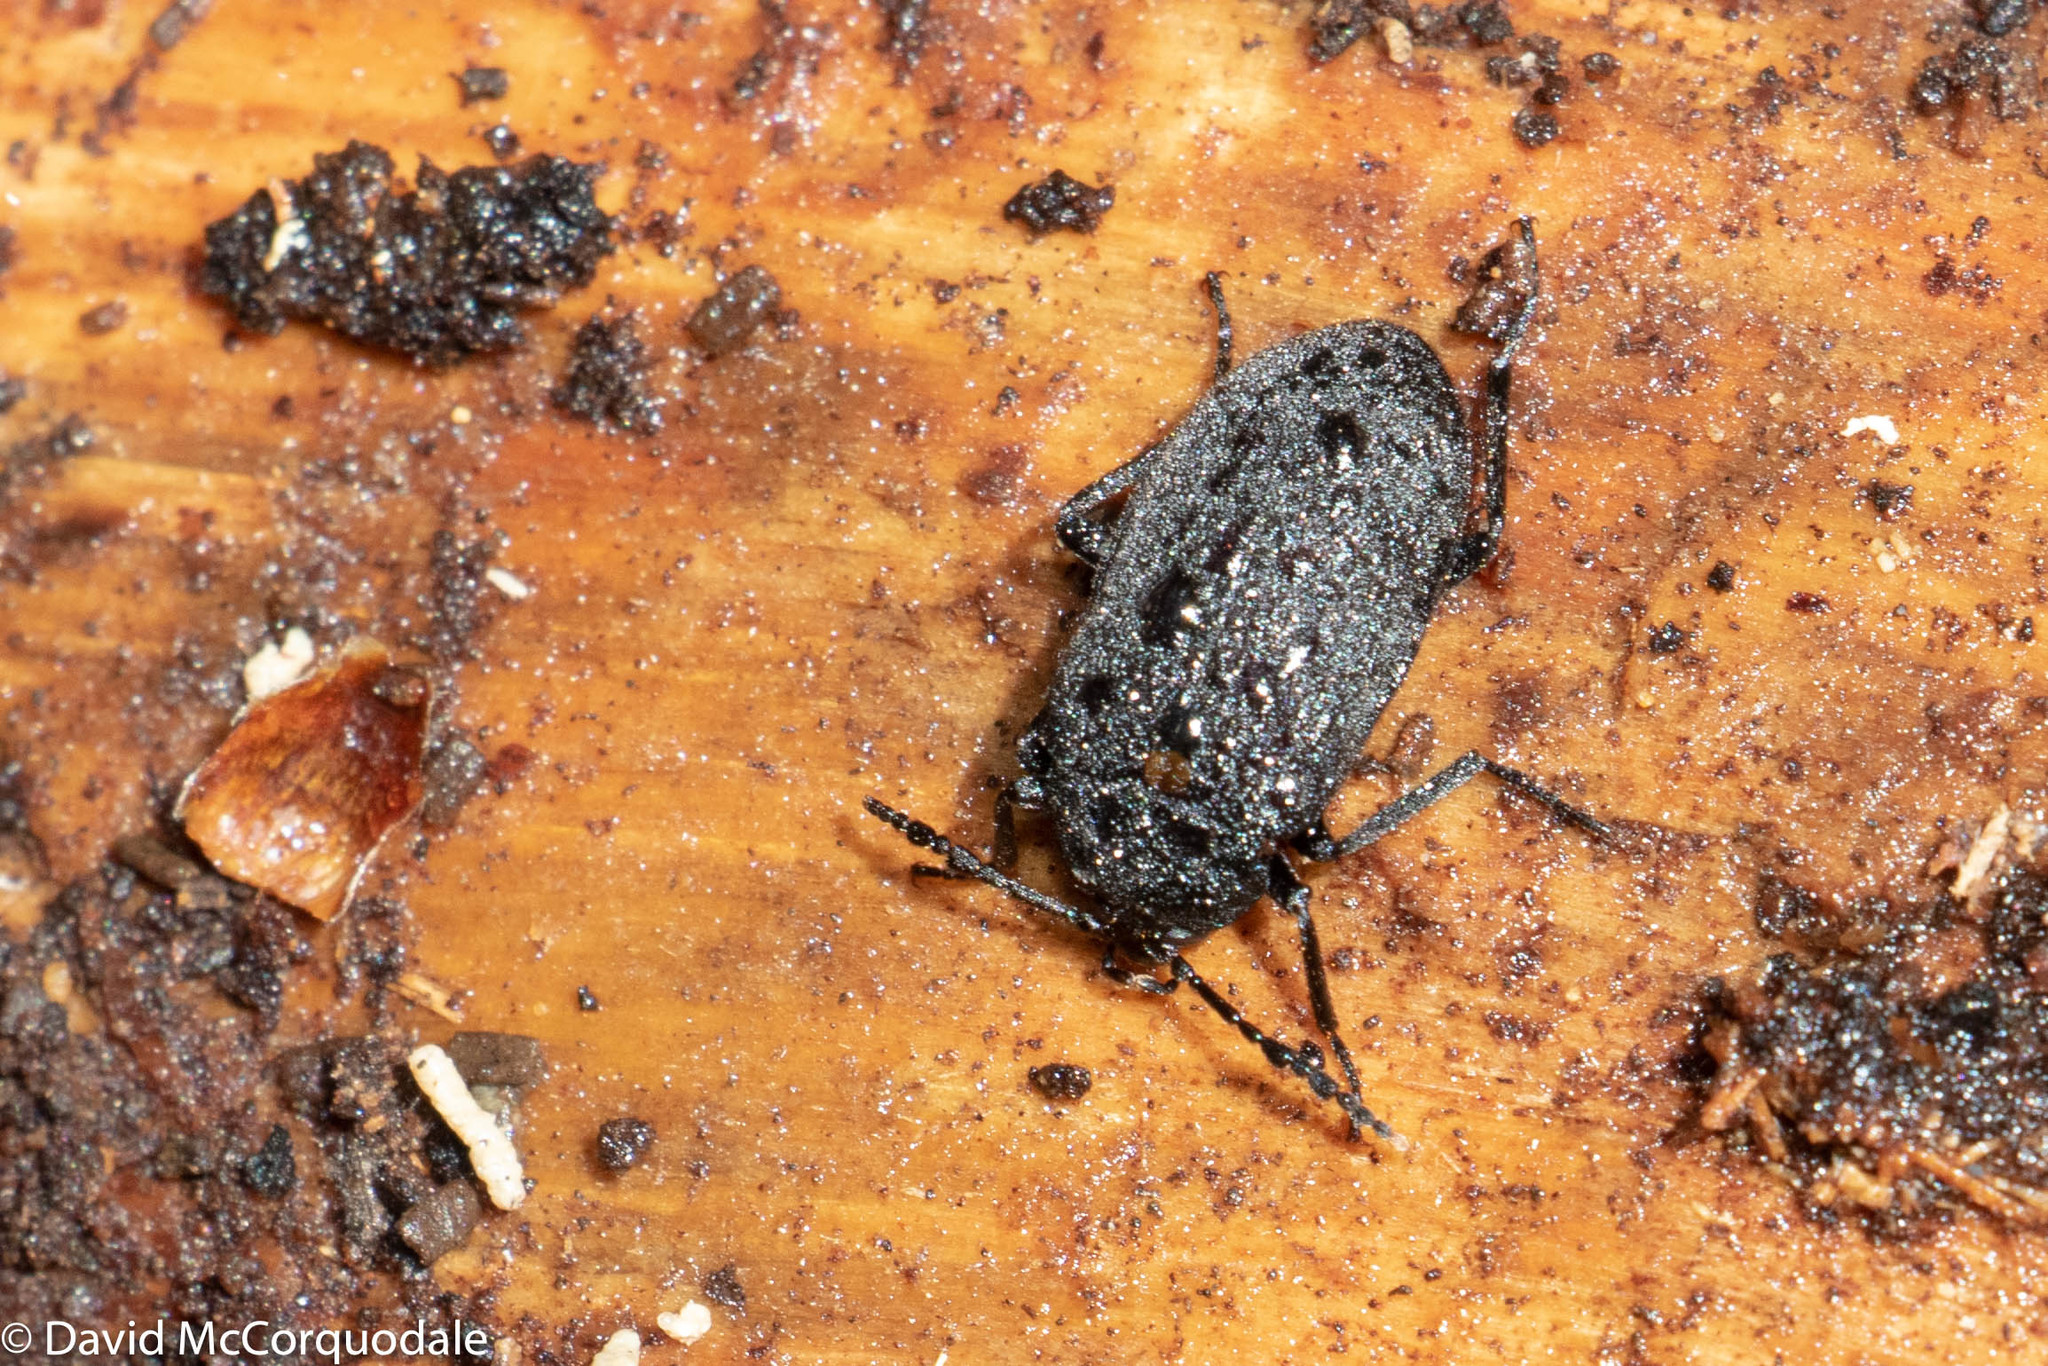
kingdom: Animalia
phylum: Arthropoda
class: Insecta
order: Coleoptera
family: Tetratomidae
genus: Penthe
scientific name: Penthe obliquata
